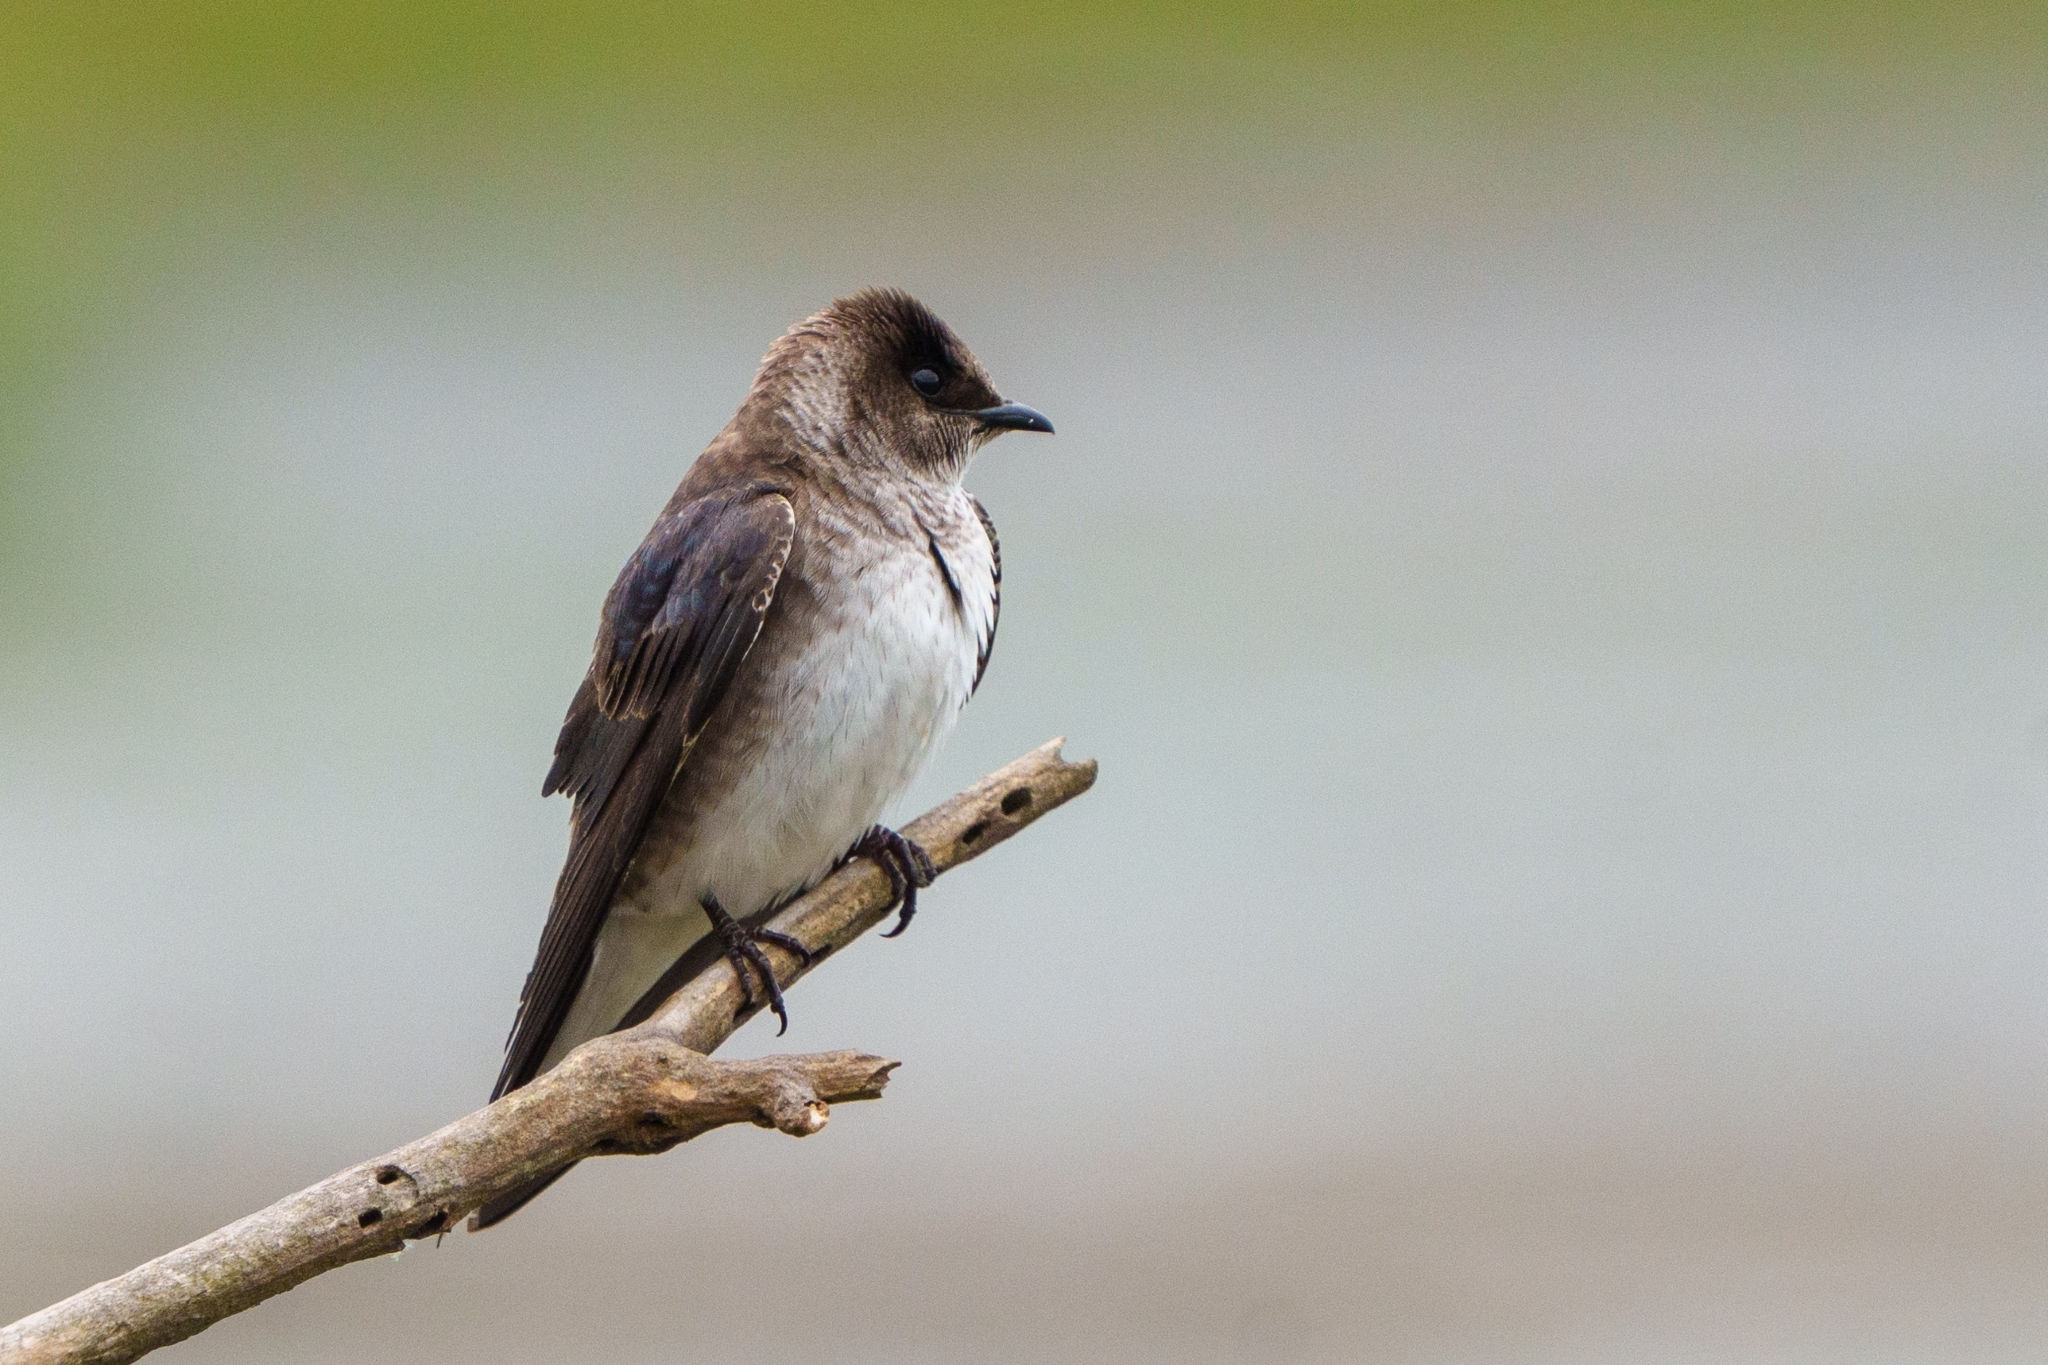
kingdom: Animalia
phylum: Chordata
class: Aves
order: Passeriformes
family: Hirundinidae
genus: Progne
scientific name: Progne subis
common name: Purple martin
